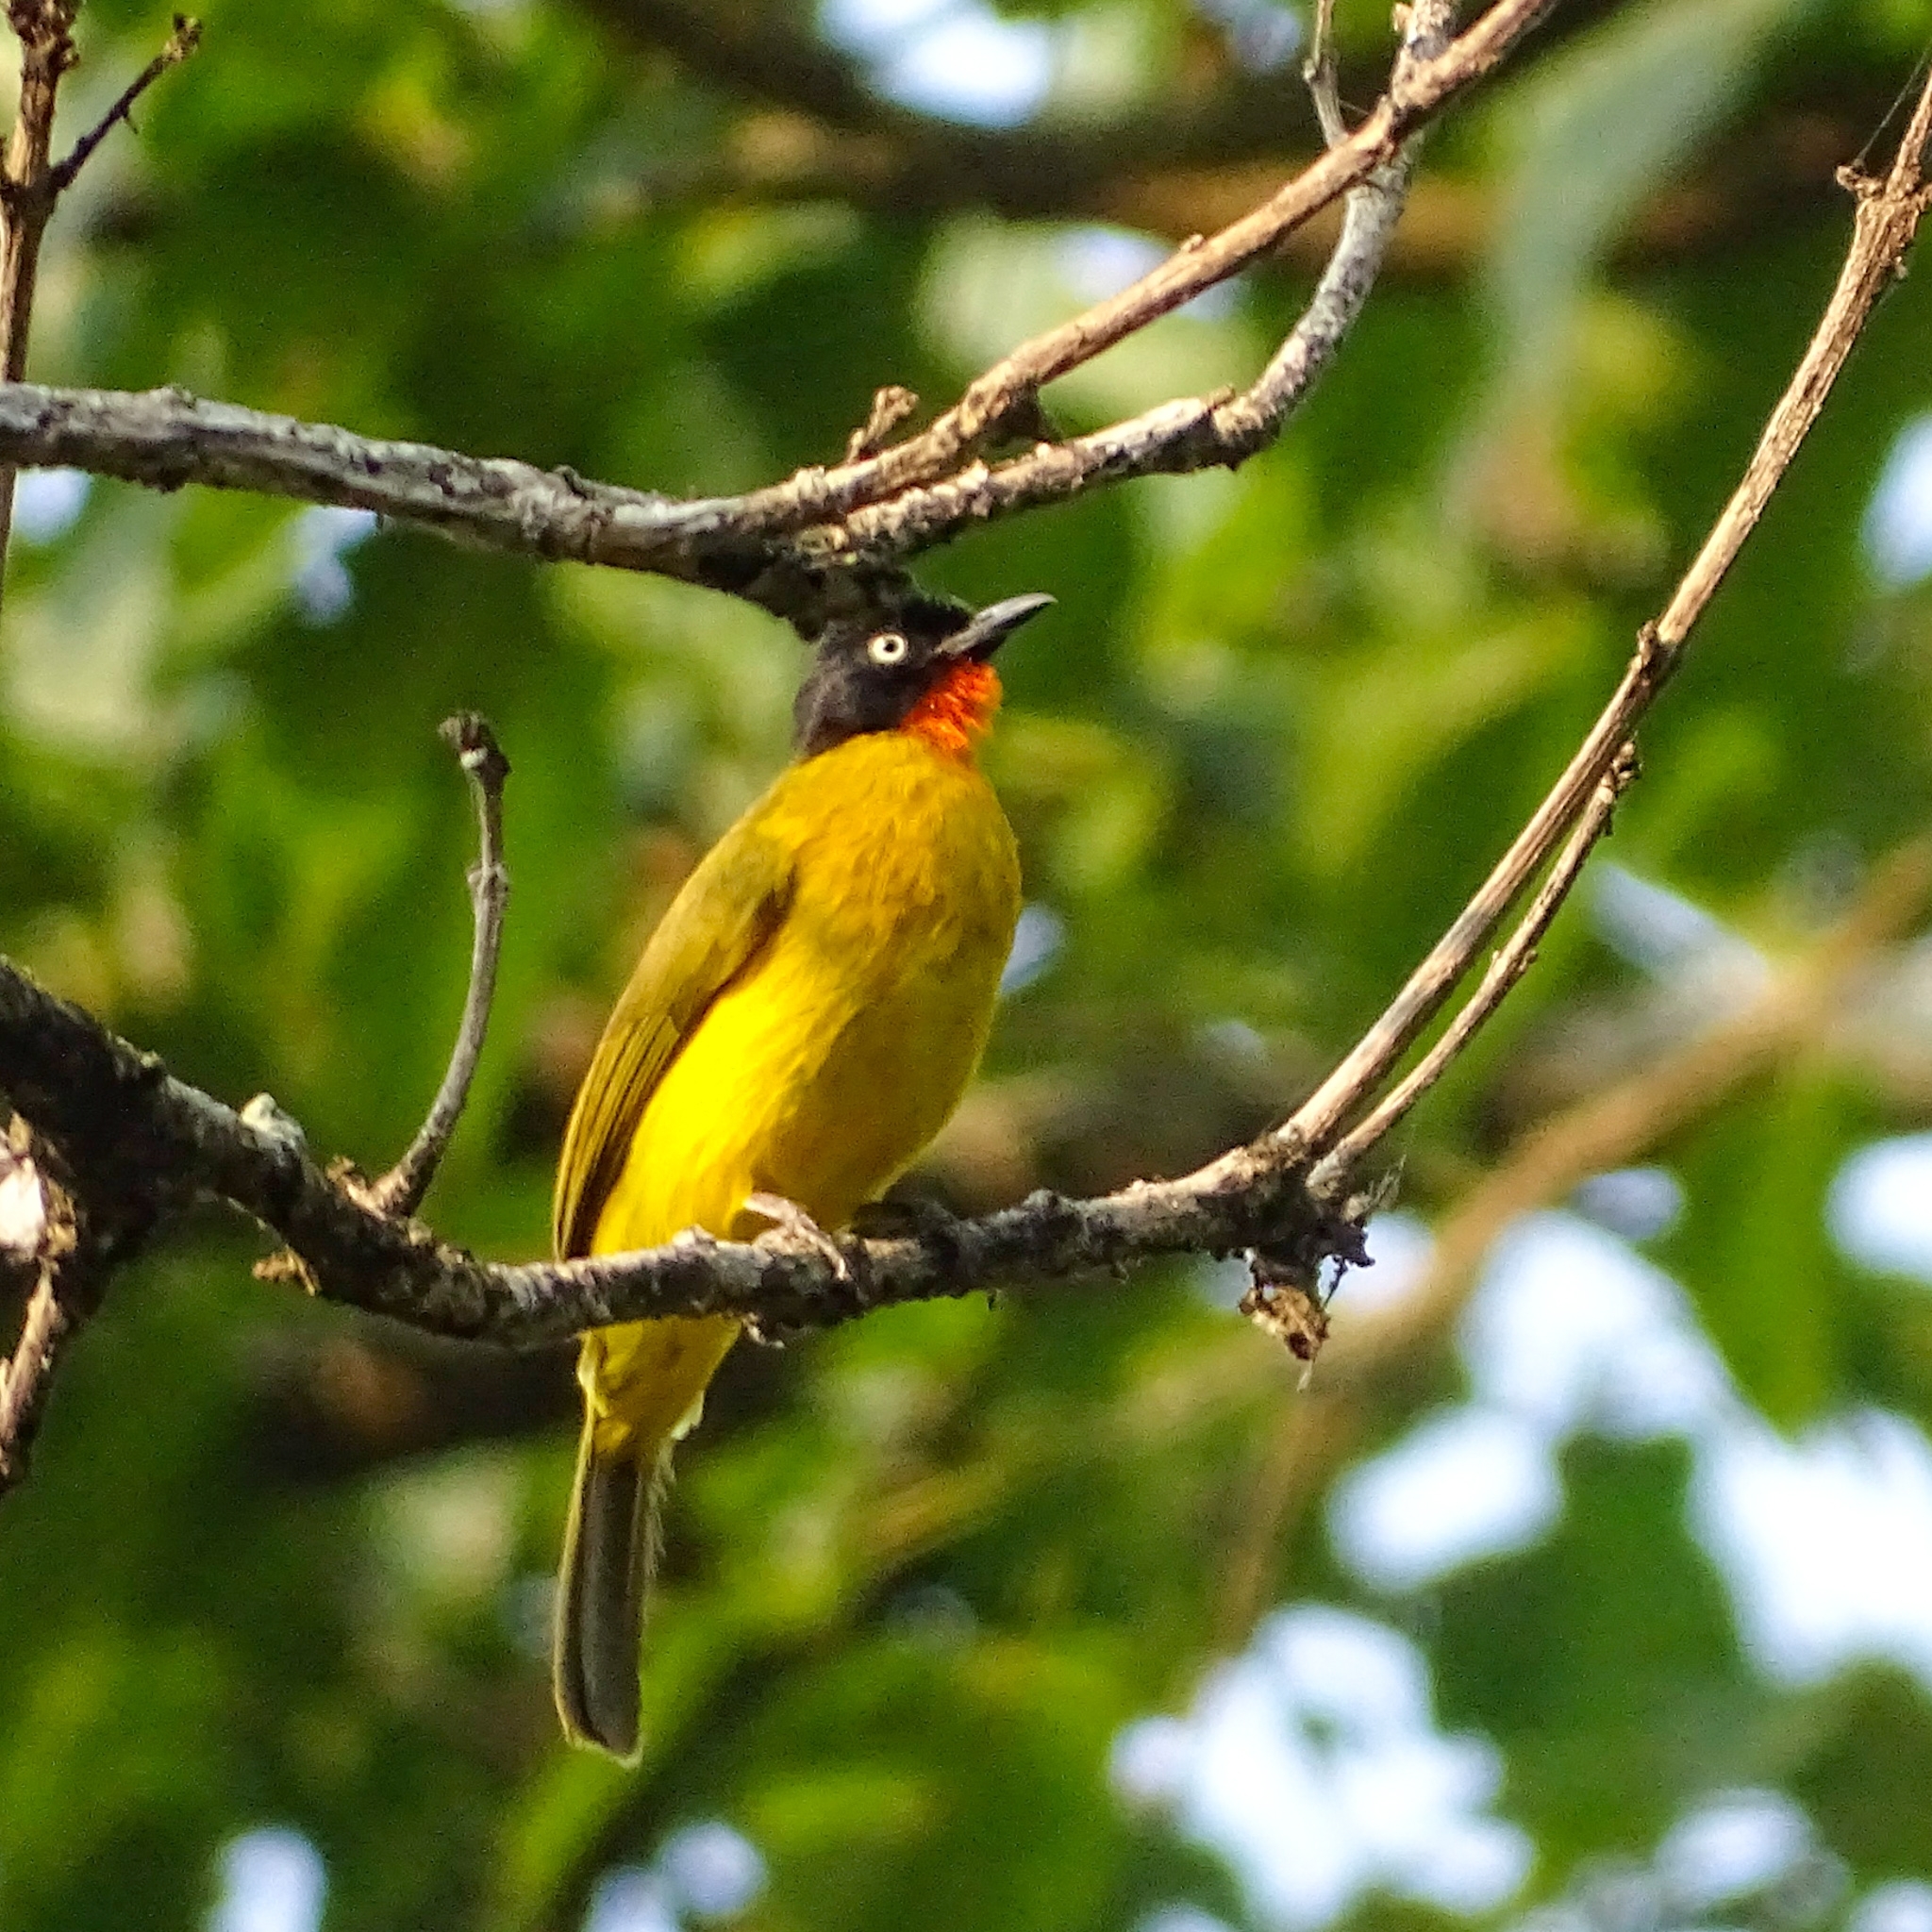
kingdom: Animalia
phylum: Chordata
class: Aves
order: Passeriformes
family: Pycnonotidae
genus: Pycnonotus
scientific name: Pycnonotus gularis
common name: Flame-throated bulbul
